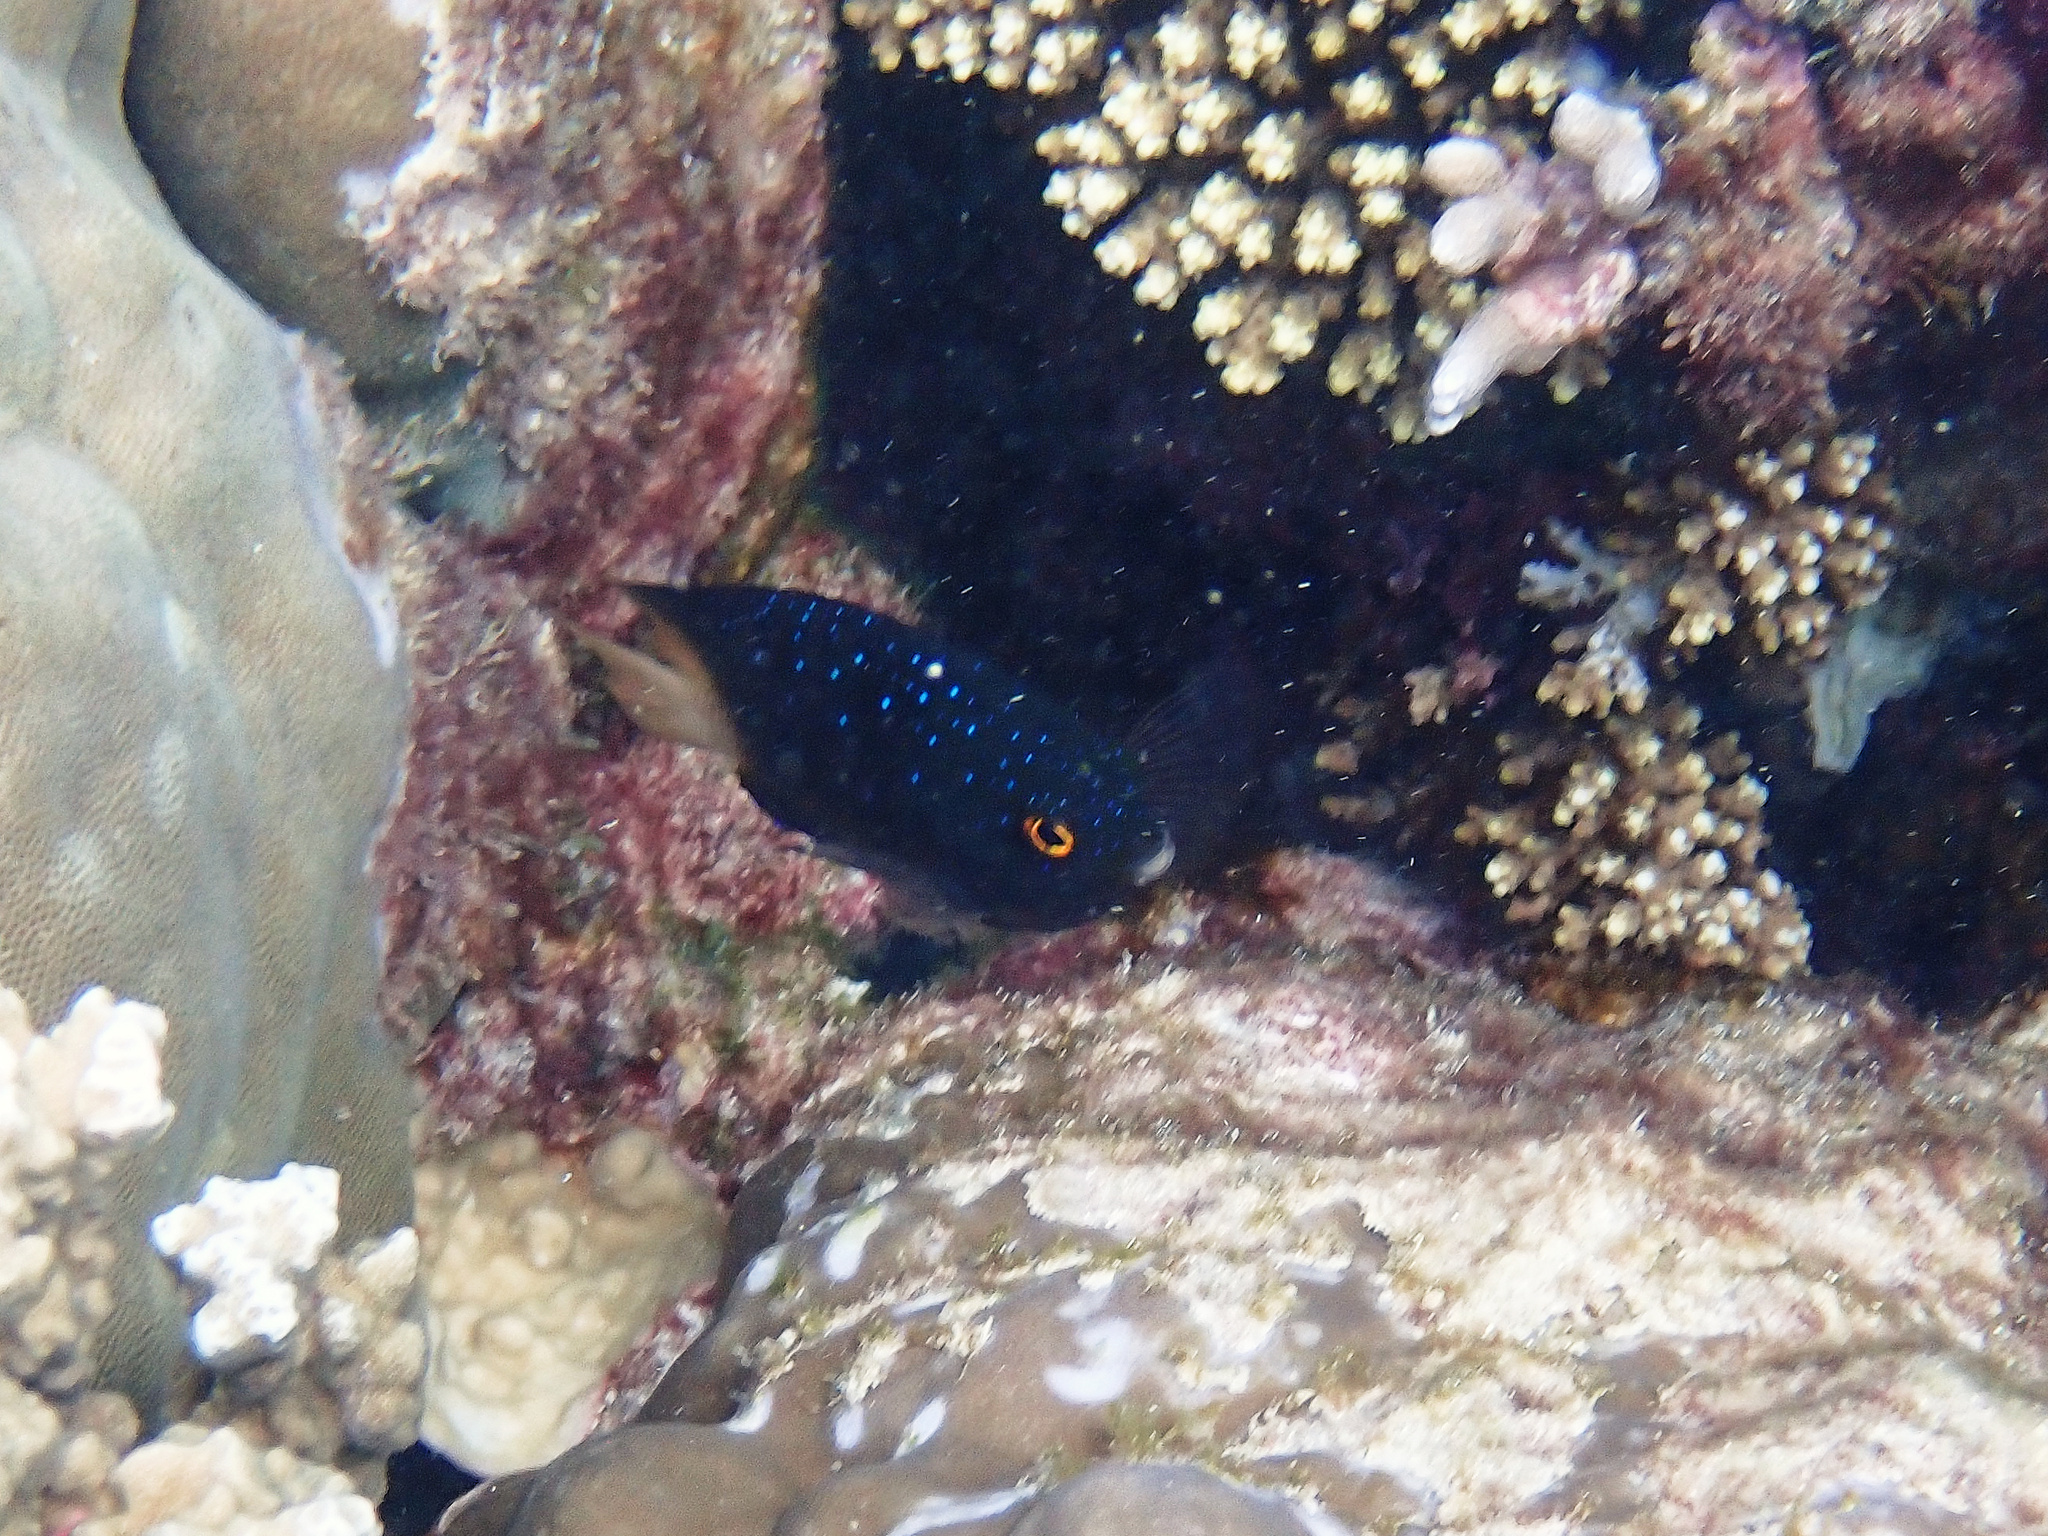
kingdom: Animalia
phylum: Chordata
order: Perciformes
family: Pomacentridae
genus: Plectroglyphidodon
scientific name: Plectroglyphidodon lacrymatus
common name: Jewel damsel
